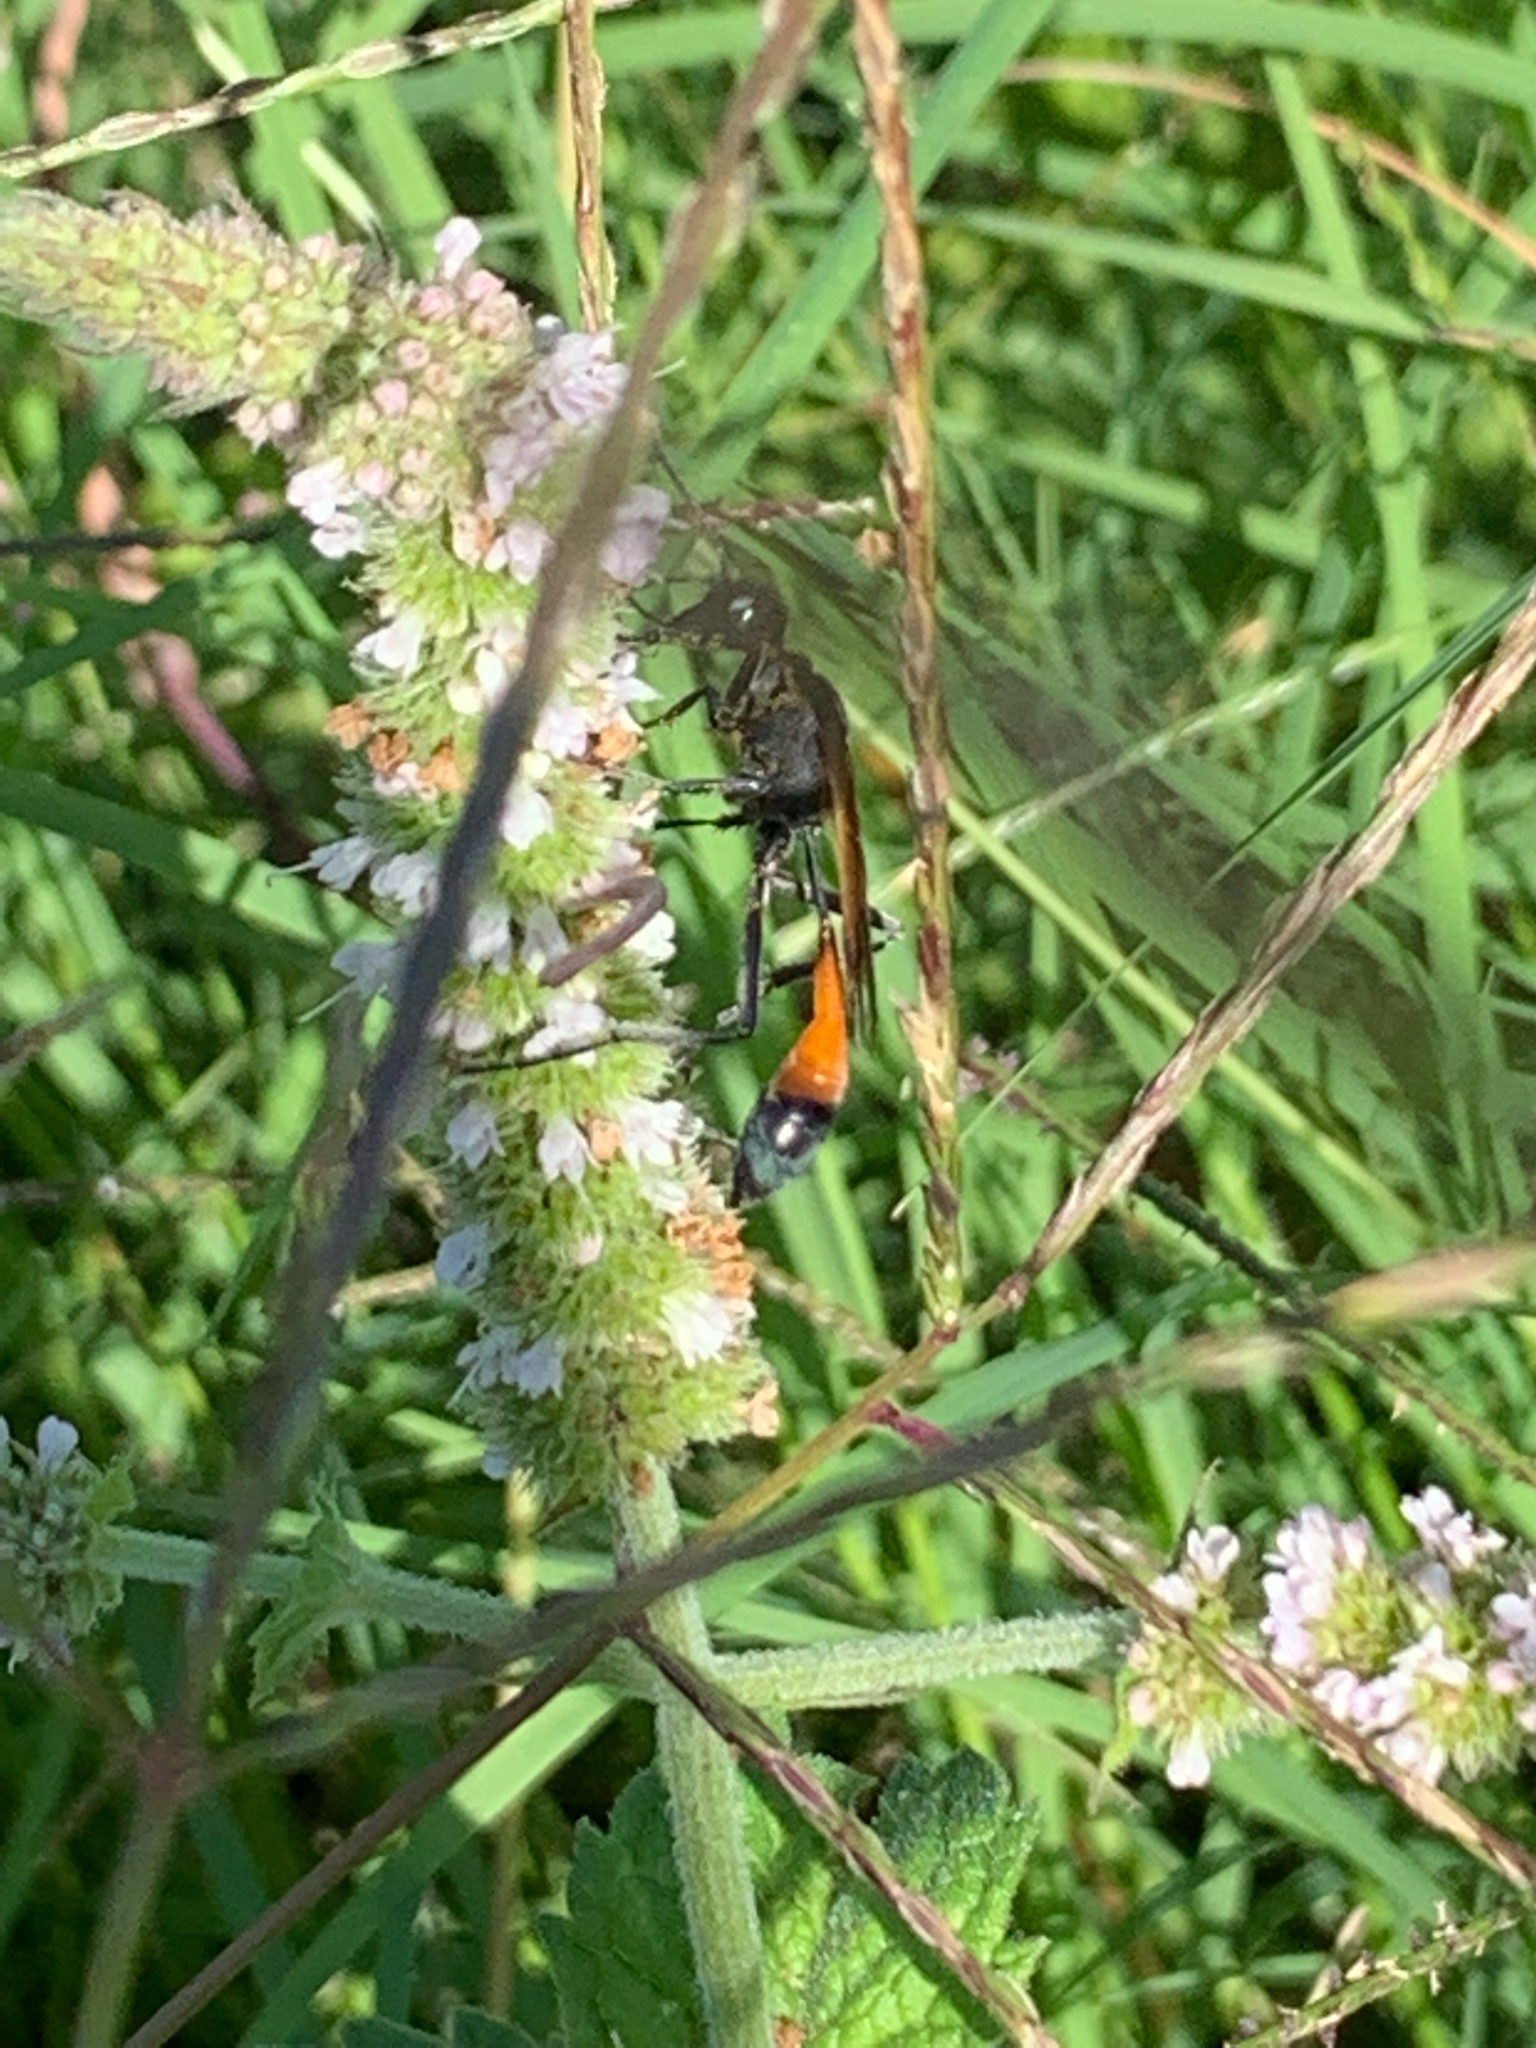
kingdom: Animalia
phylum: Arthropoda
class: Insecta
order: Hymenoptera
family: Sphecidae
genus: Ammophila
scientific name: Ammophila pictipennis
